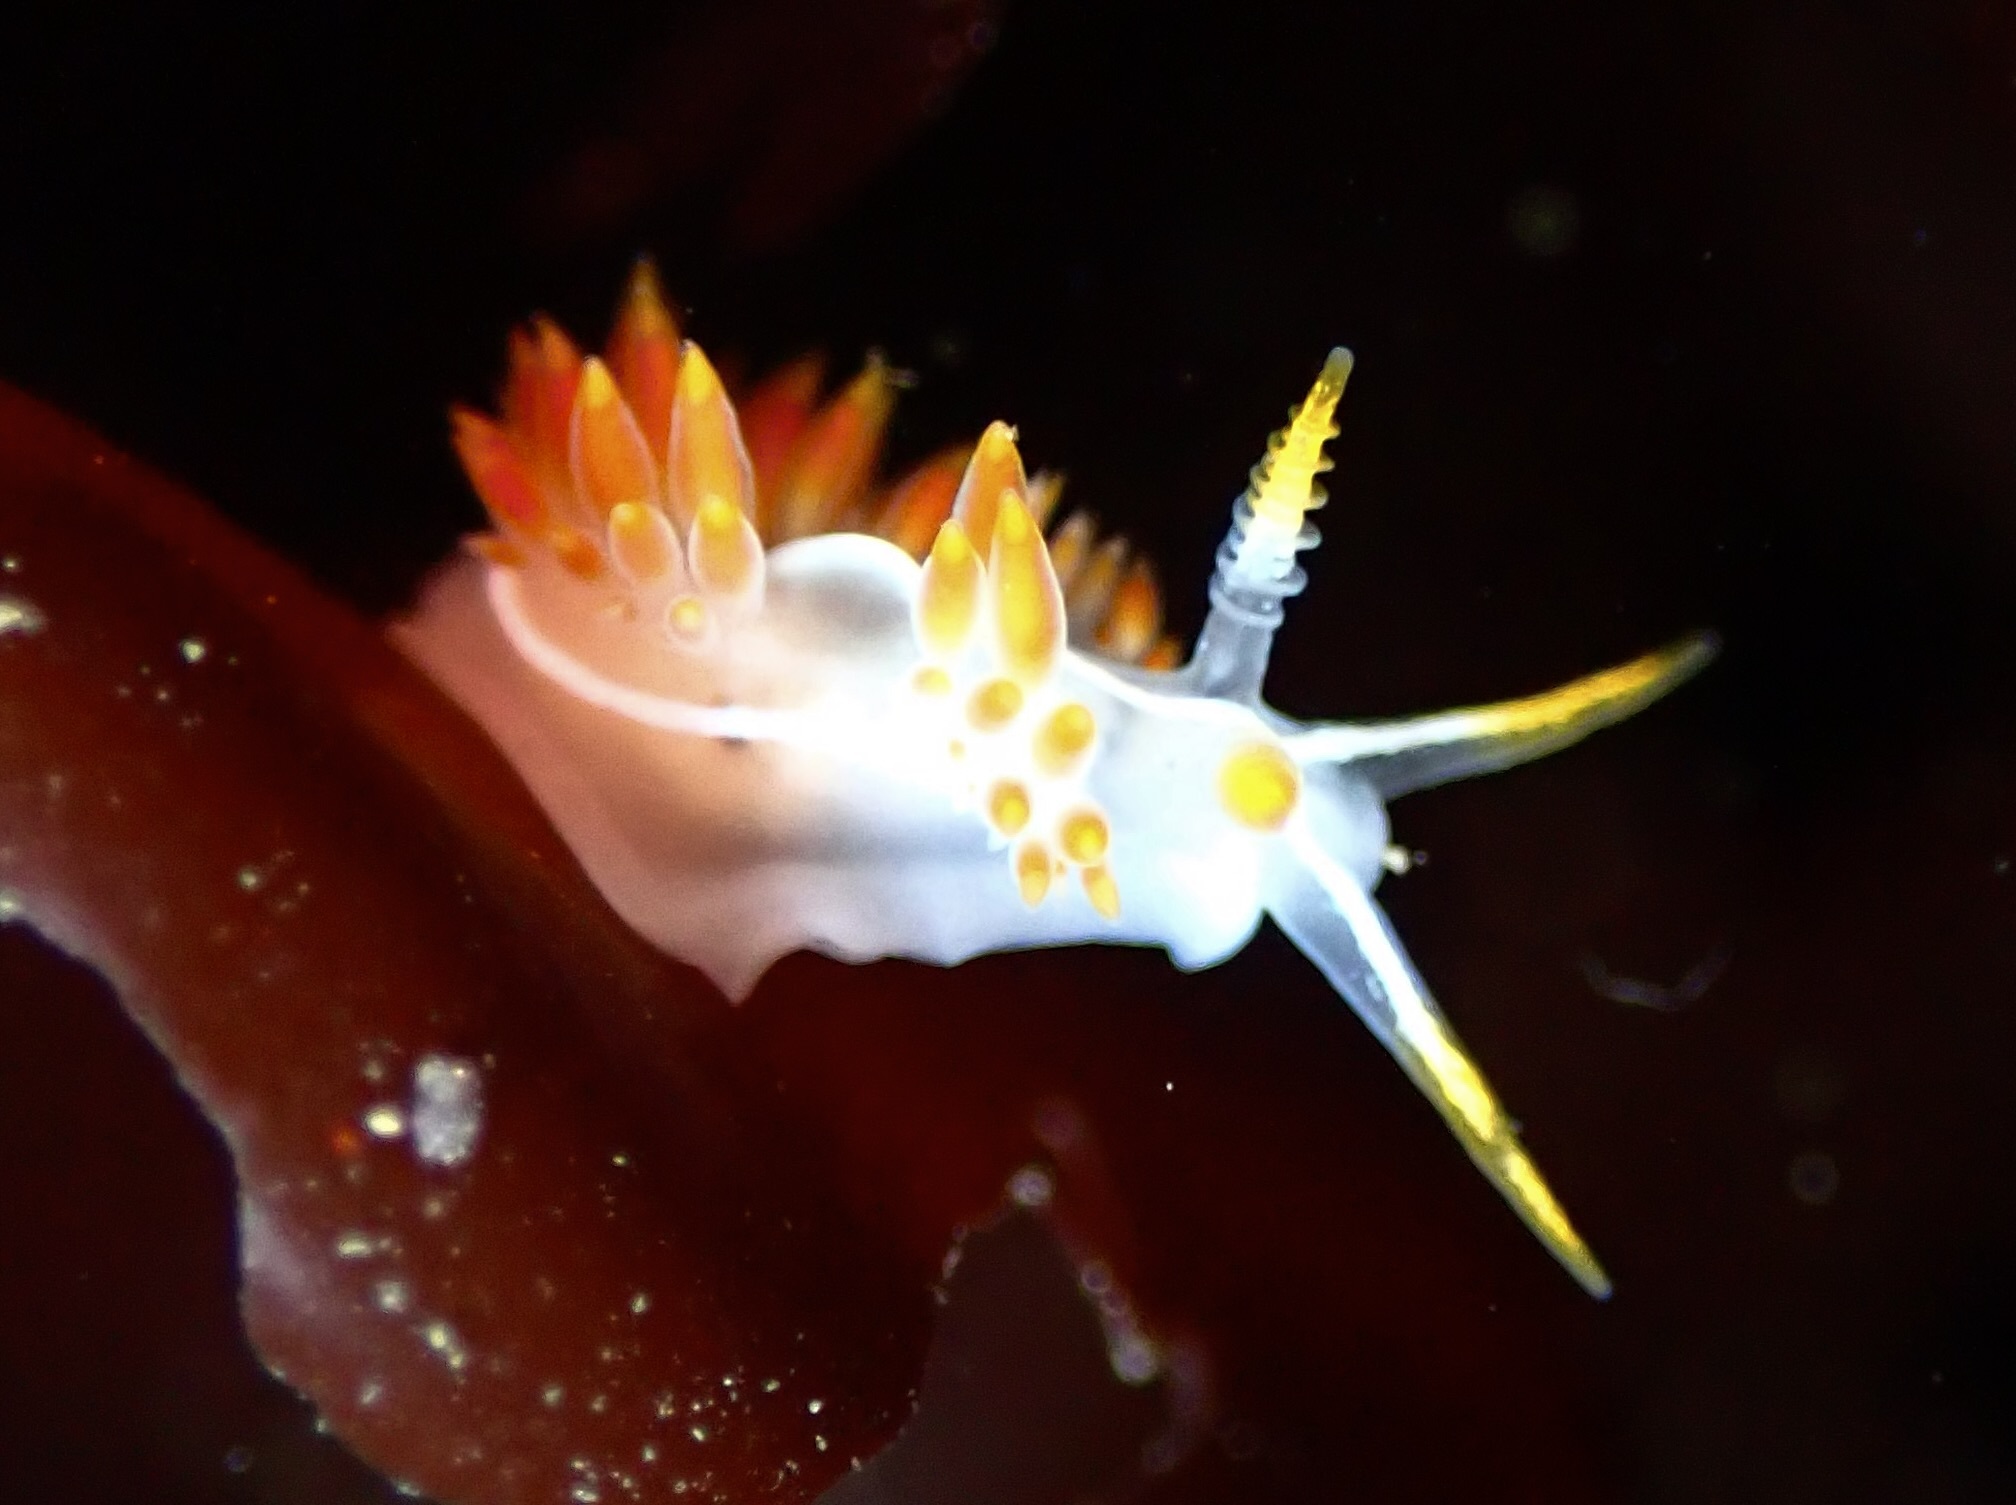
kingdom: Animalia
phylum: Mollusca
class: Gastropoda
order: Nudibranchia
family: Coryphellidae
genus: Coryphella
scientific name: Coryphella trilineata
